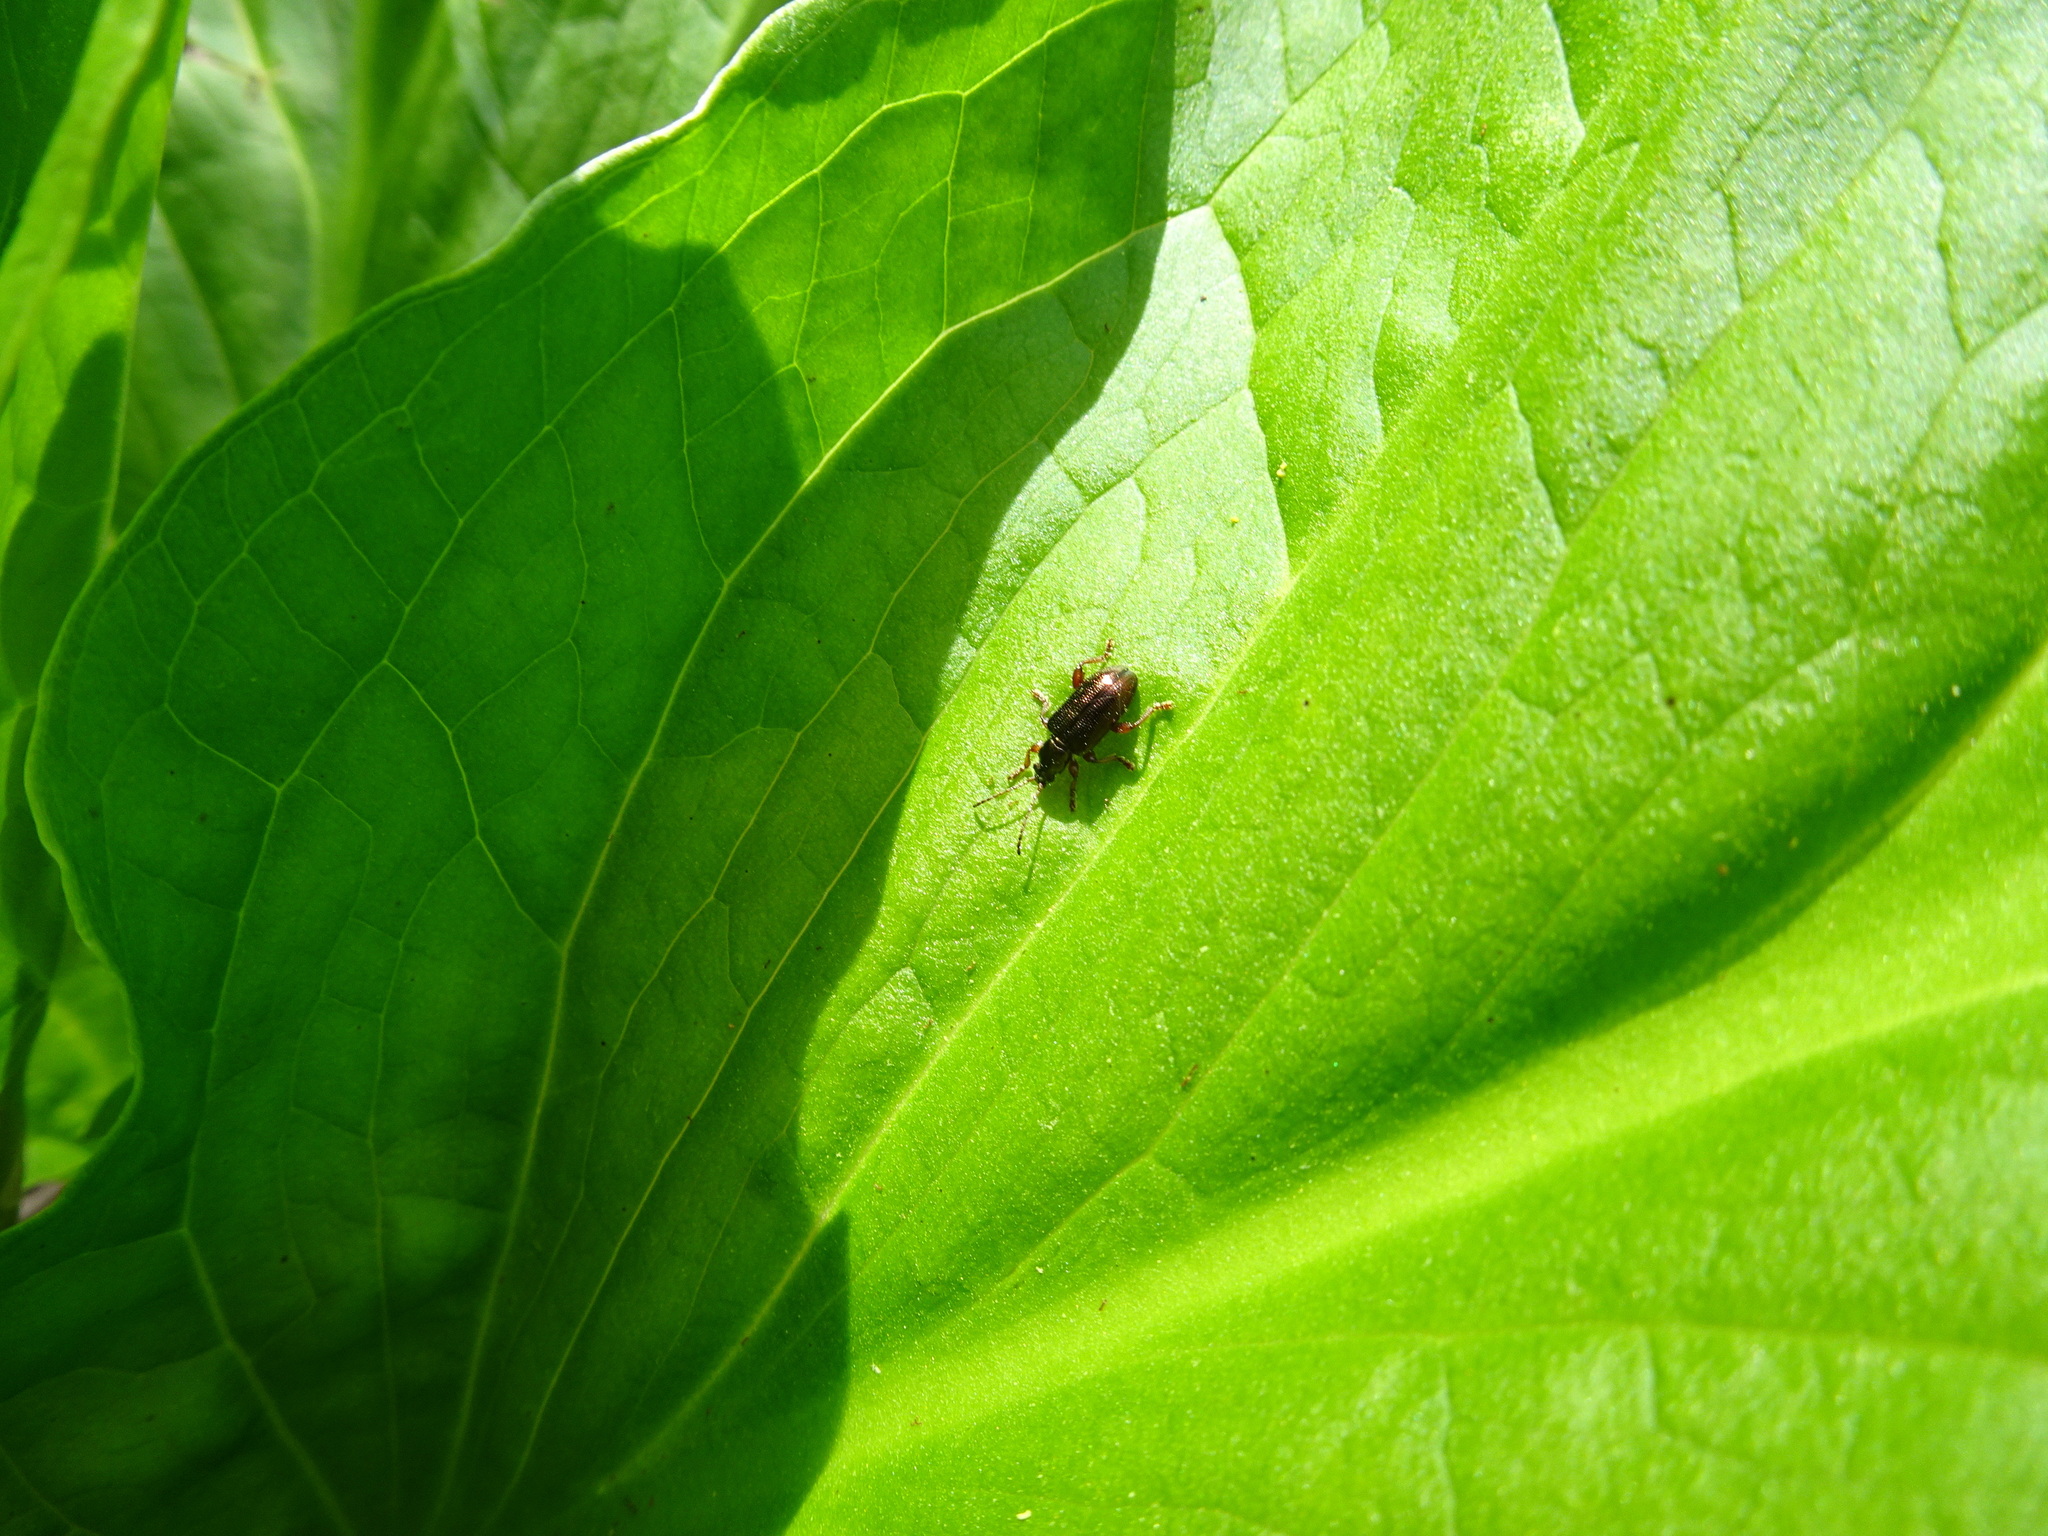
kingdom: Animalia
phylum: Arthropoda
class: Insecta
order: Coleoptera
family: Chrysomelidae
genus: Plateumaris
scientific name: Plateumaris rufa
